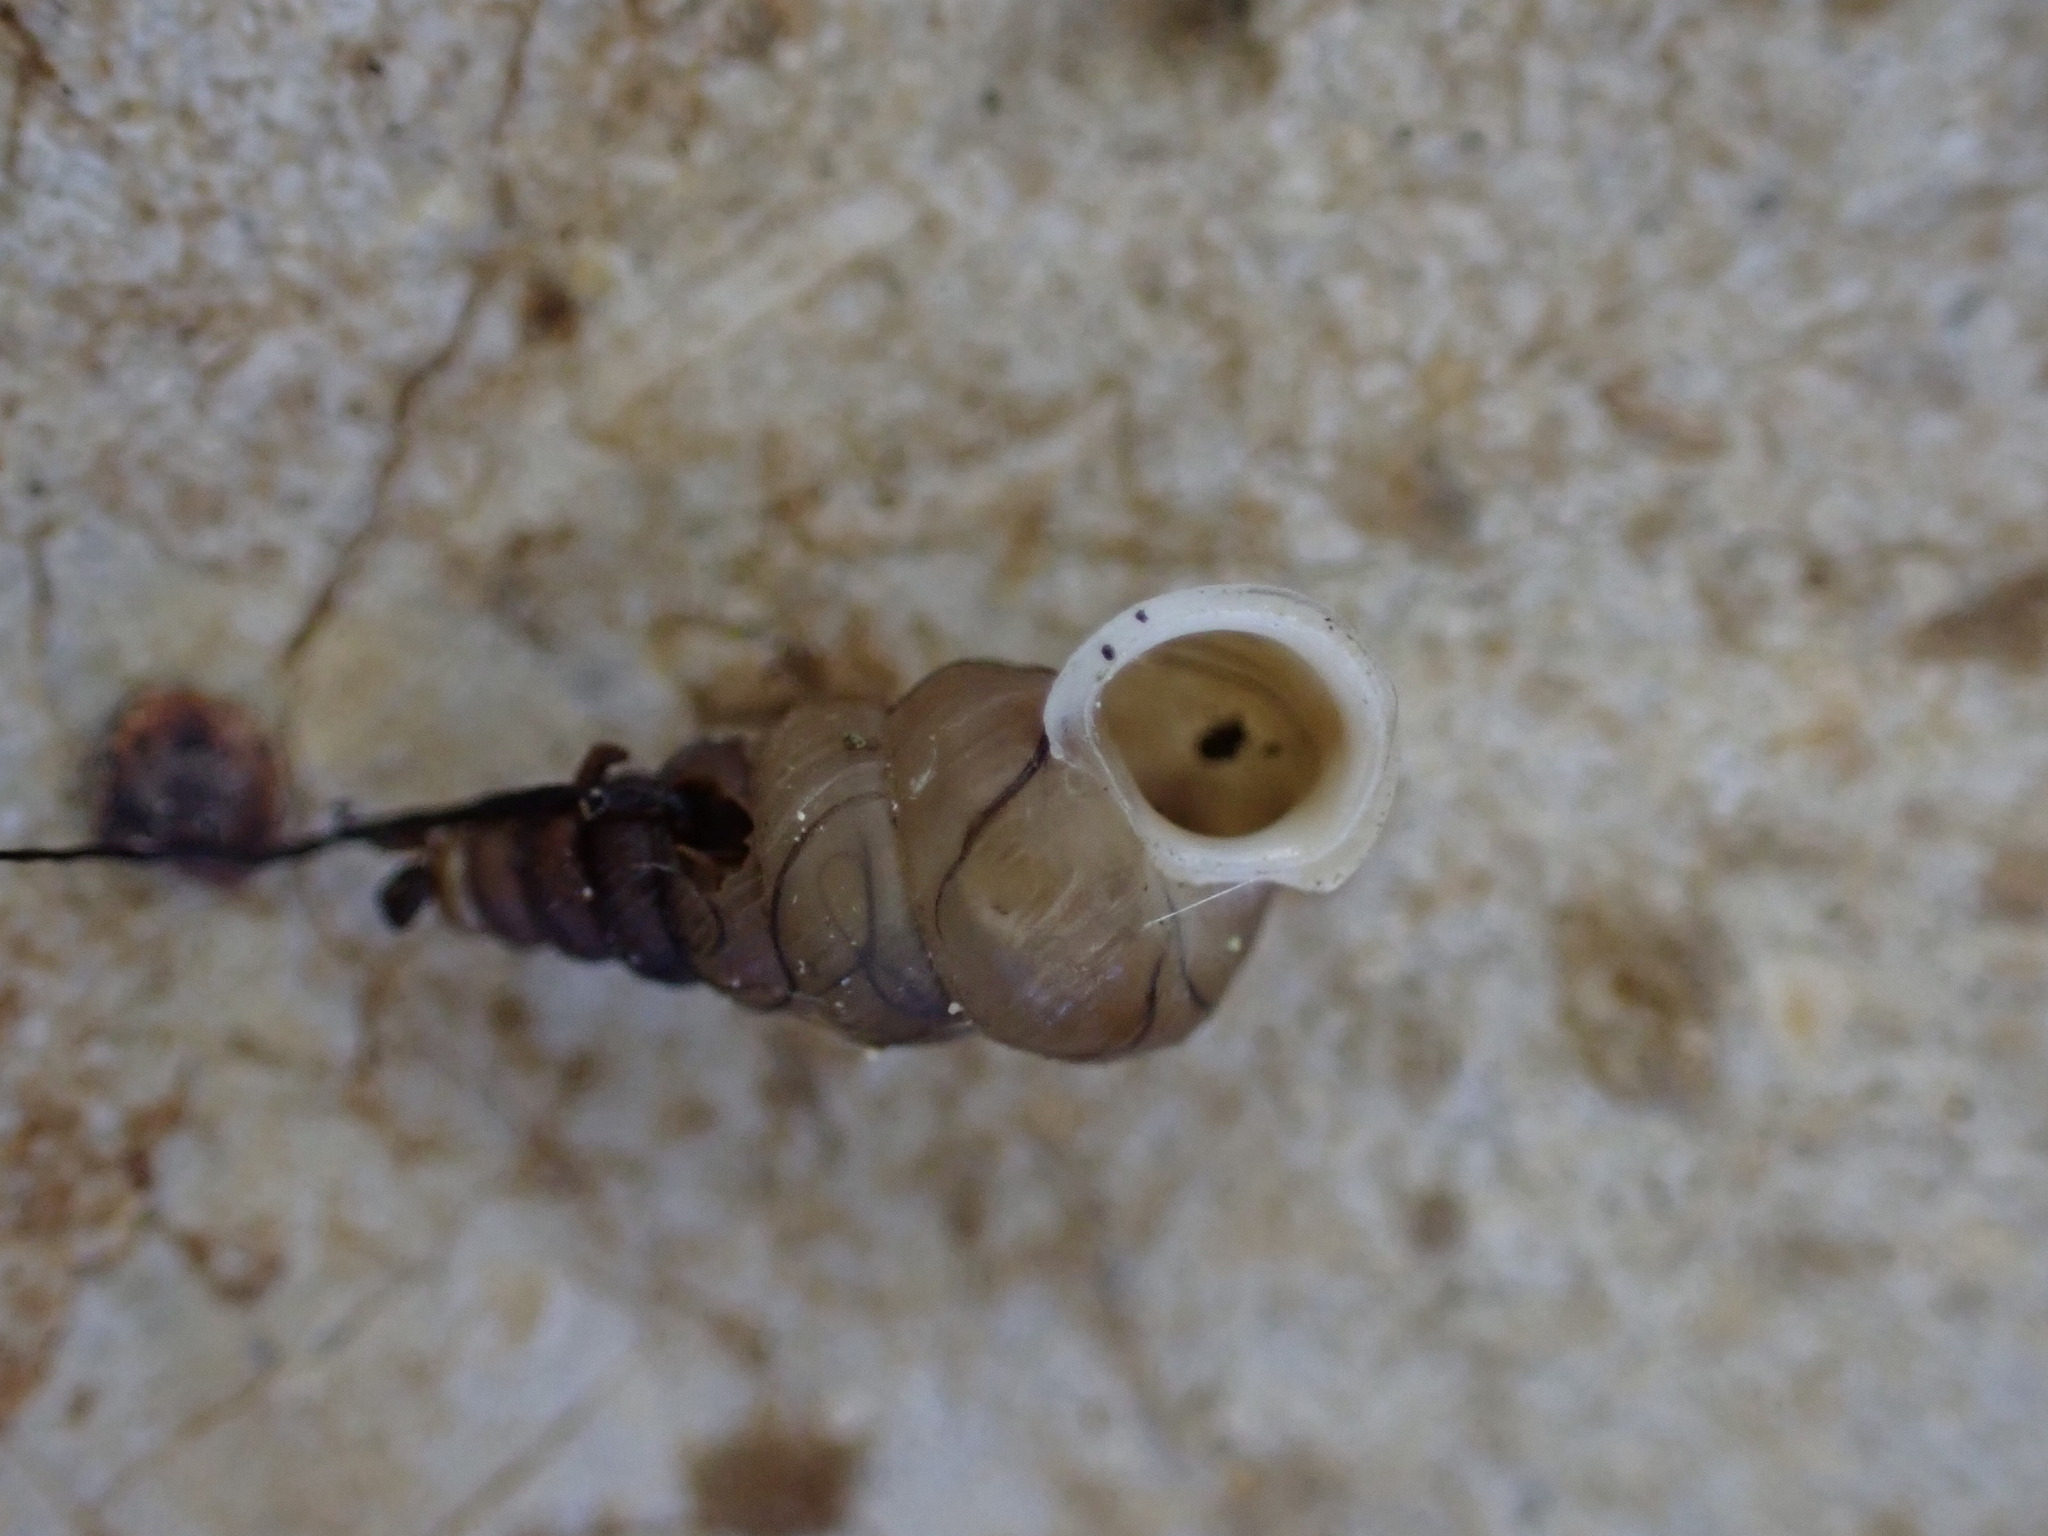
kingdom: Animalia
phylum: Mollusca
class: Gastropoda
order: Architaenioglossa
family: Cochlostomatidae
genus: Cochlostoma
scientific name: Cochlostoma patulum
